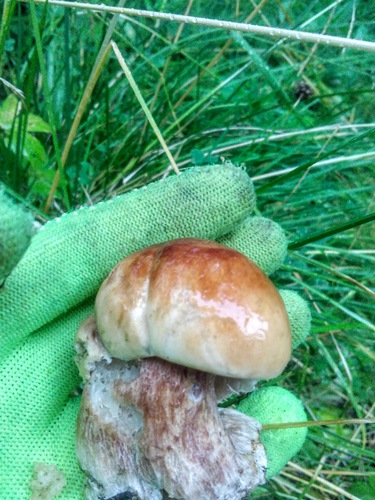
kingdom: Fungi
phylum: Basidiomycota
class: Agaricomycetes
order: Boletales
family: Boletaceae
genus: Boletus
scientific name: Boletus edulis
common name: Cep
